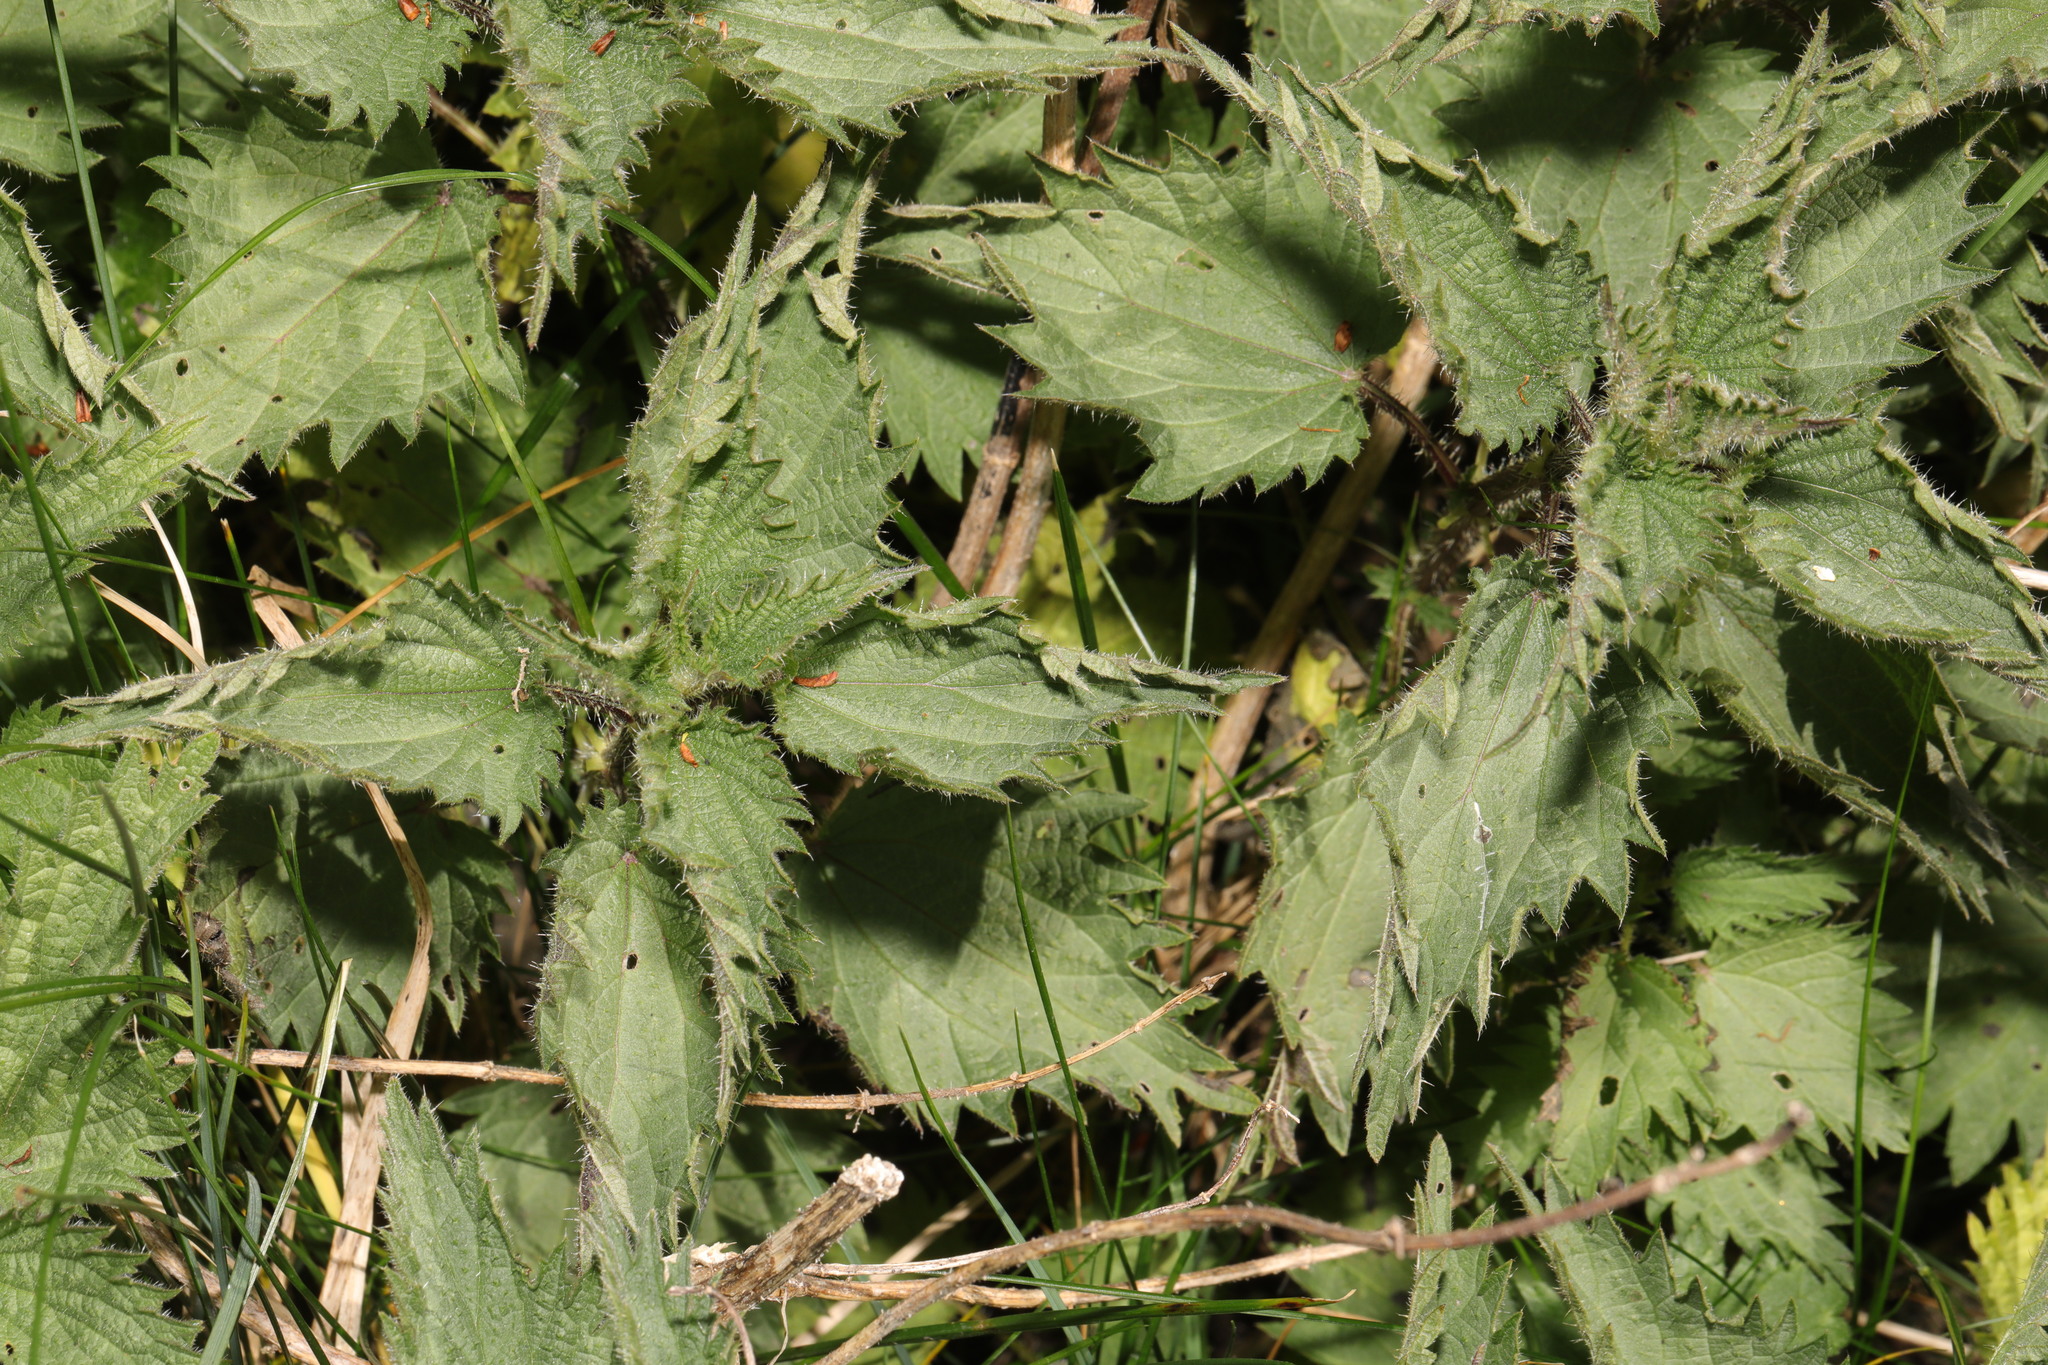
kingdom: Plantae
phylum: Tracheophyta
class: Magnoliopsida
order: Rosales
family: Urticaceae
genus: Urtica
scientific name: Urtica dioica
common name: Common nettle
